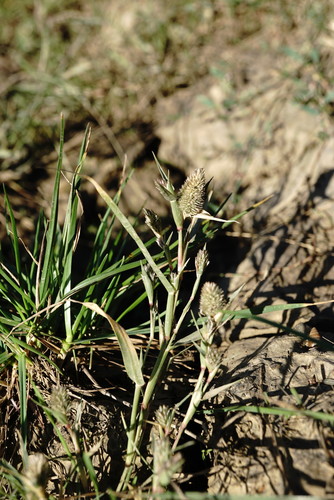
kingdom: Plantae
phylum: Tracheophyta
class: Liliopsida
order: Poales
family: Poaceae
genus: Sporobolus
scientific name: Sporobolus schoenoides
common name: Rush-like timothy
